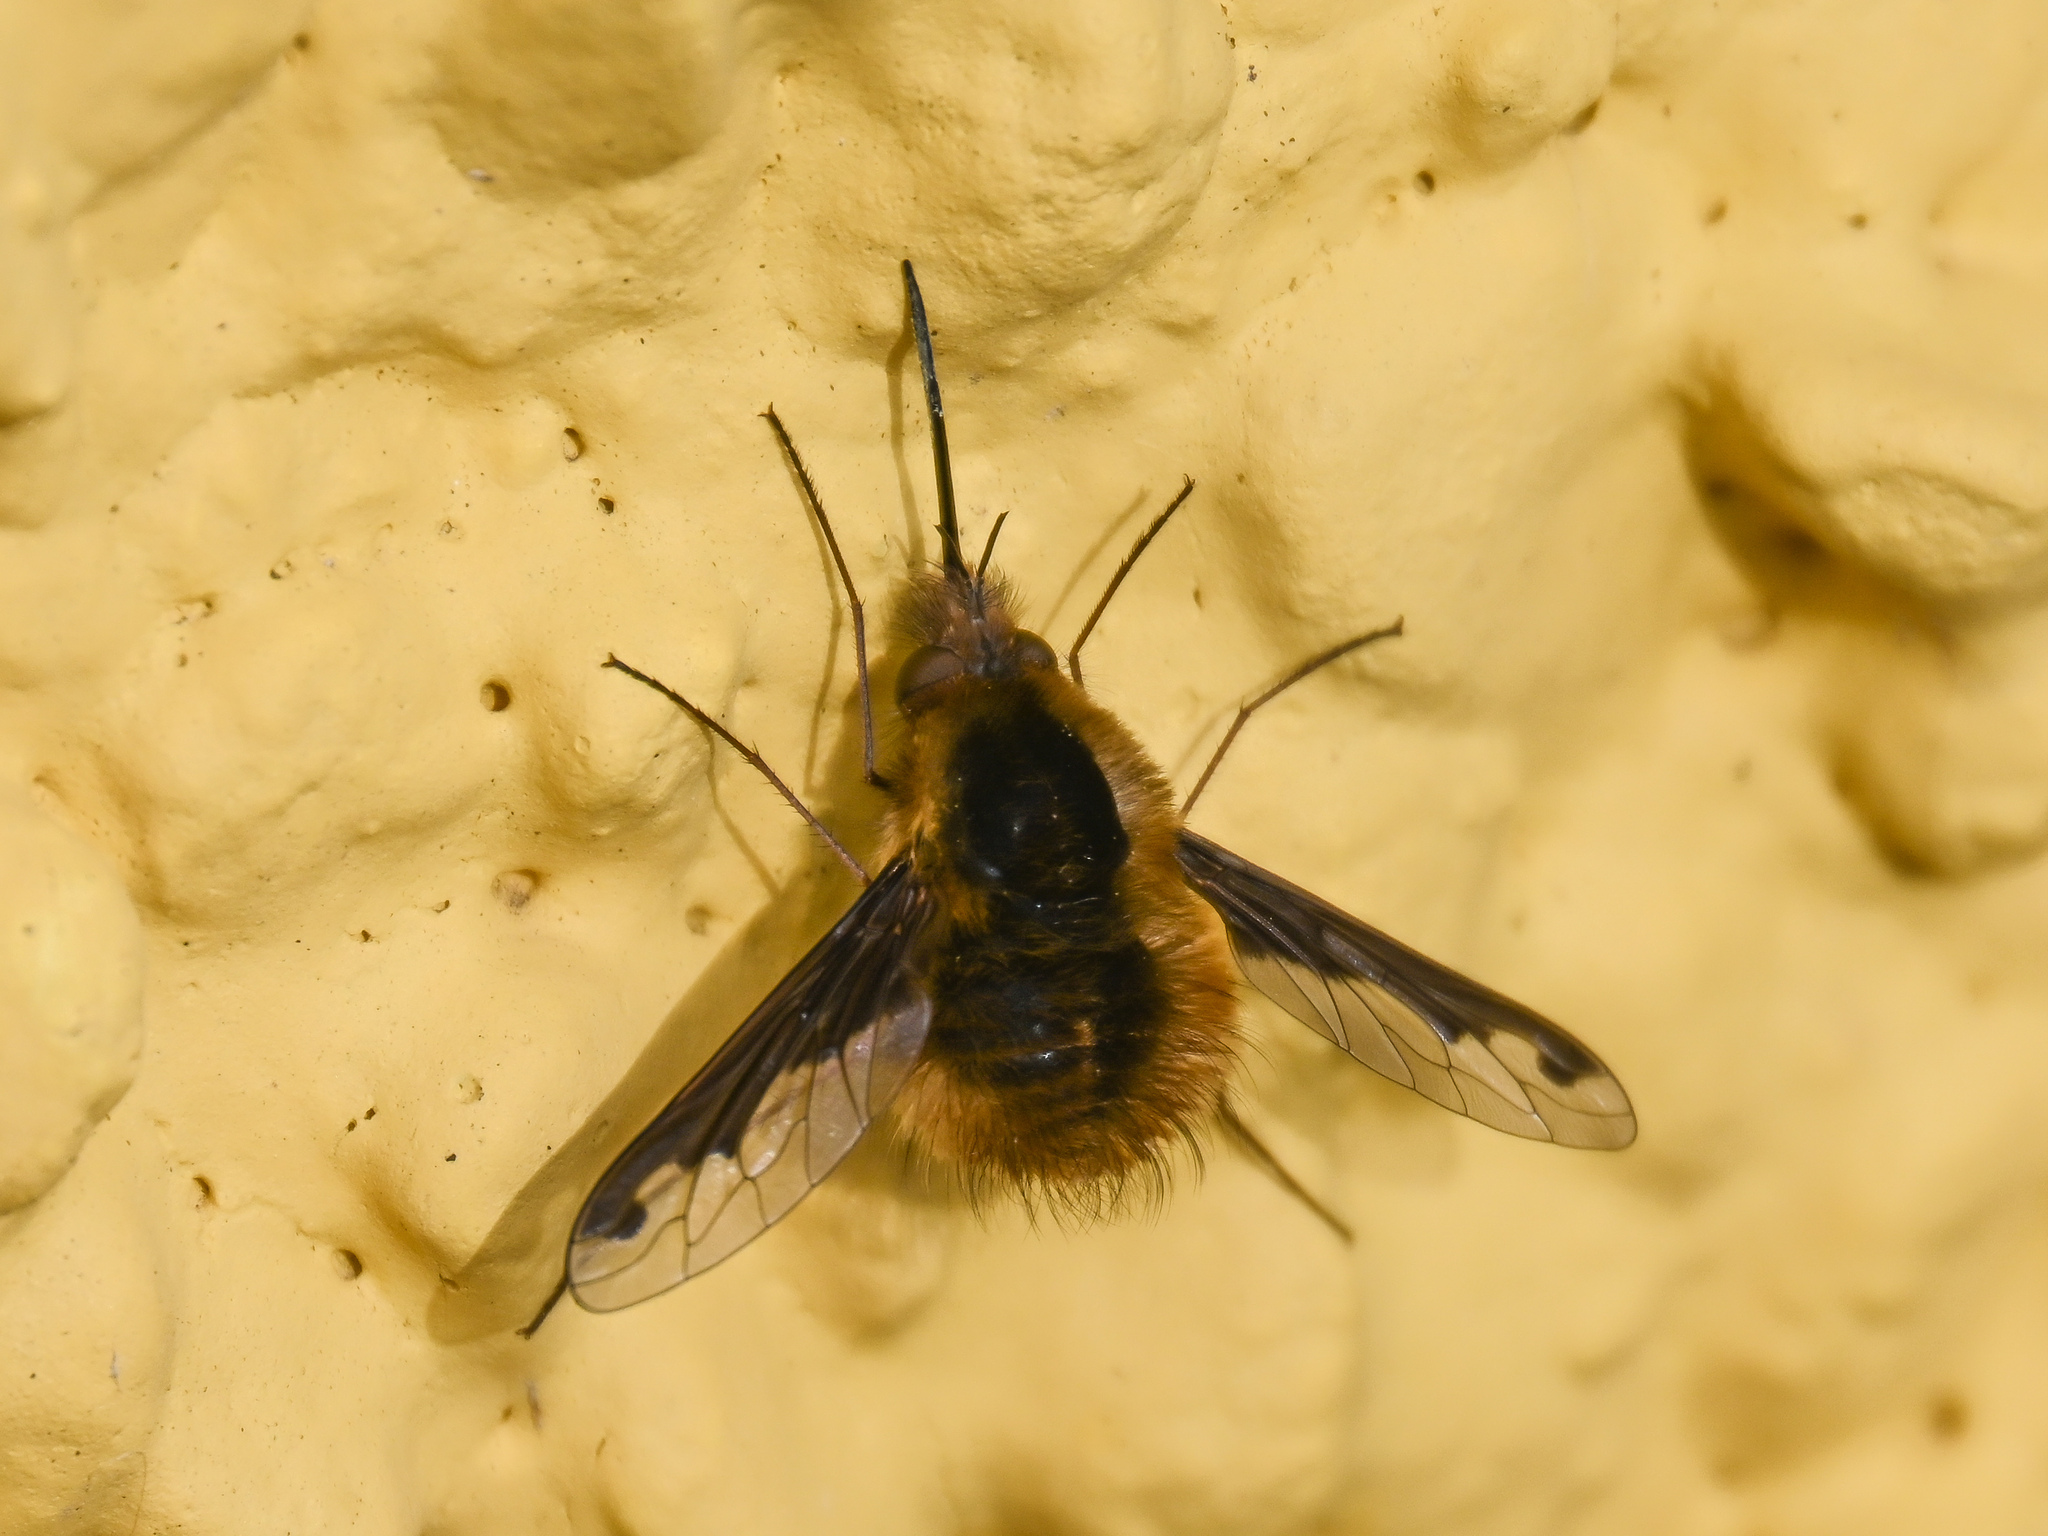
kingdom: Animalia
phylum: Arthropoda
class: Insecta
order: Diptera
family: Bombyliidae
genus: Bombylius
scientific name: Bombylius major
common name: Bee fly
